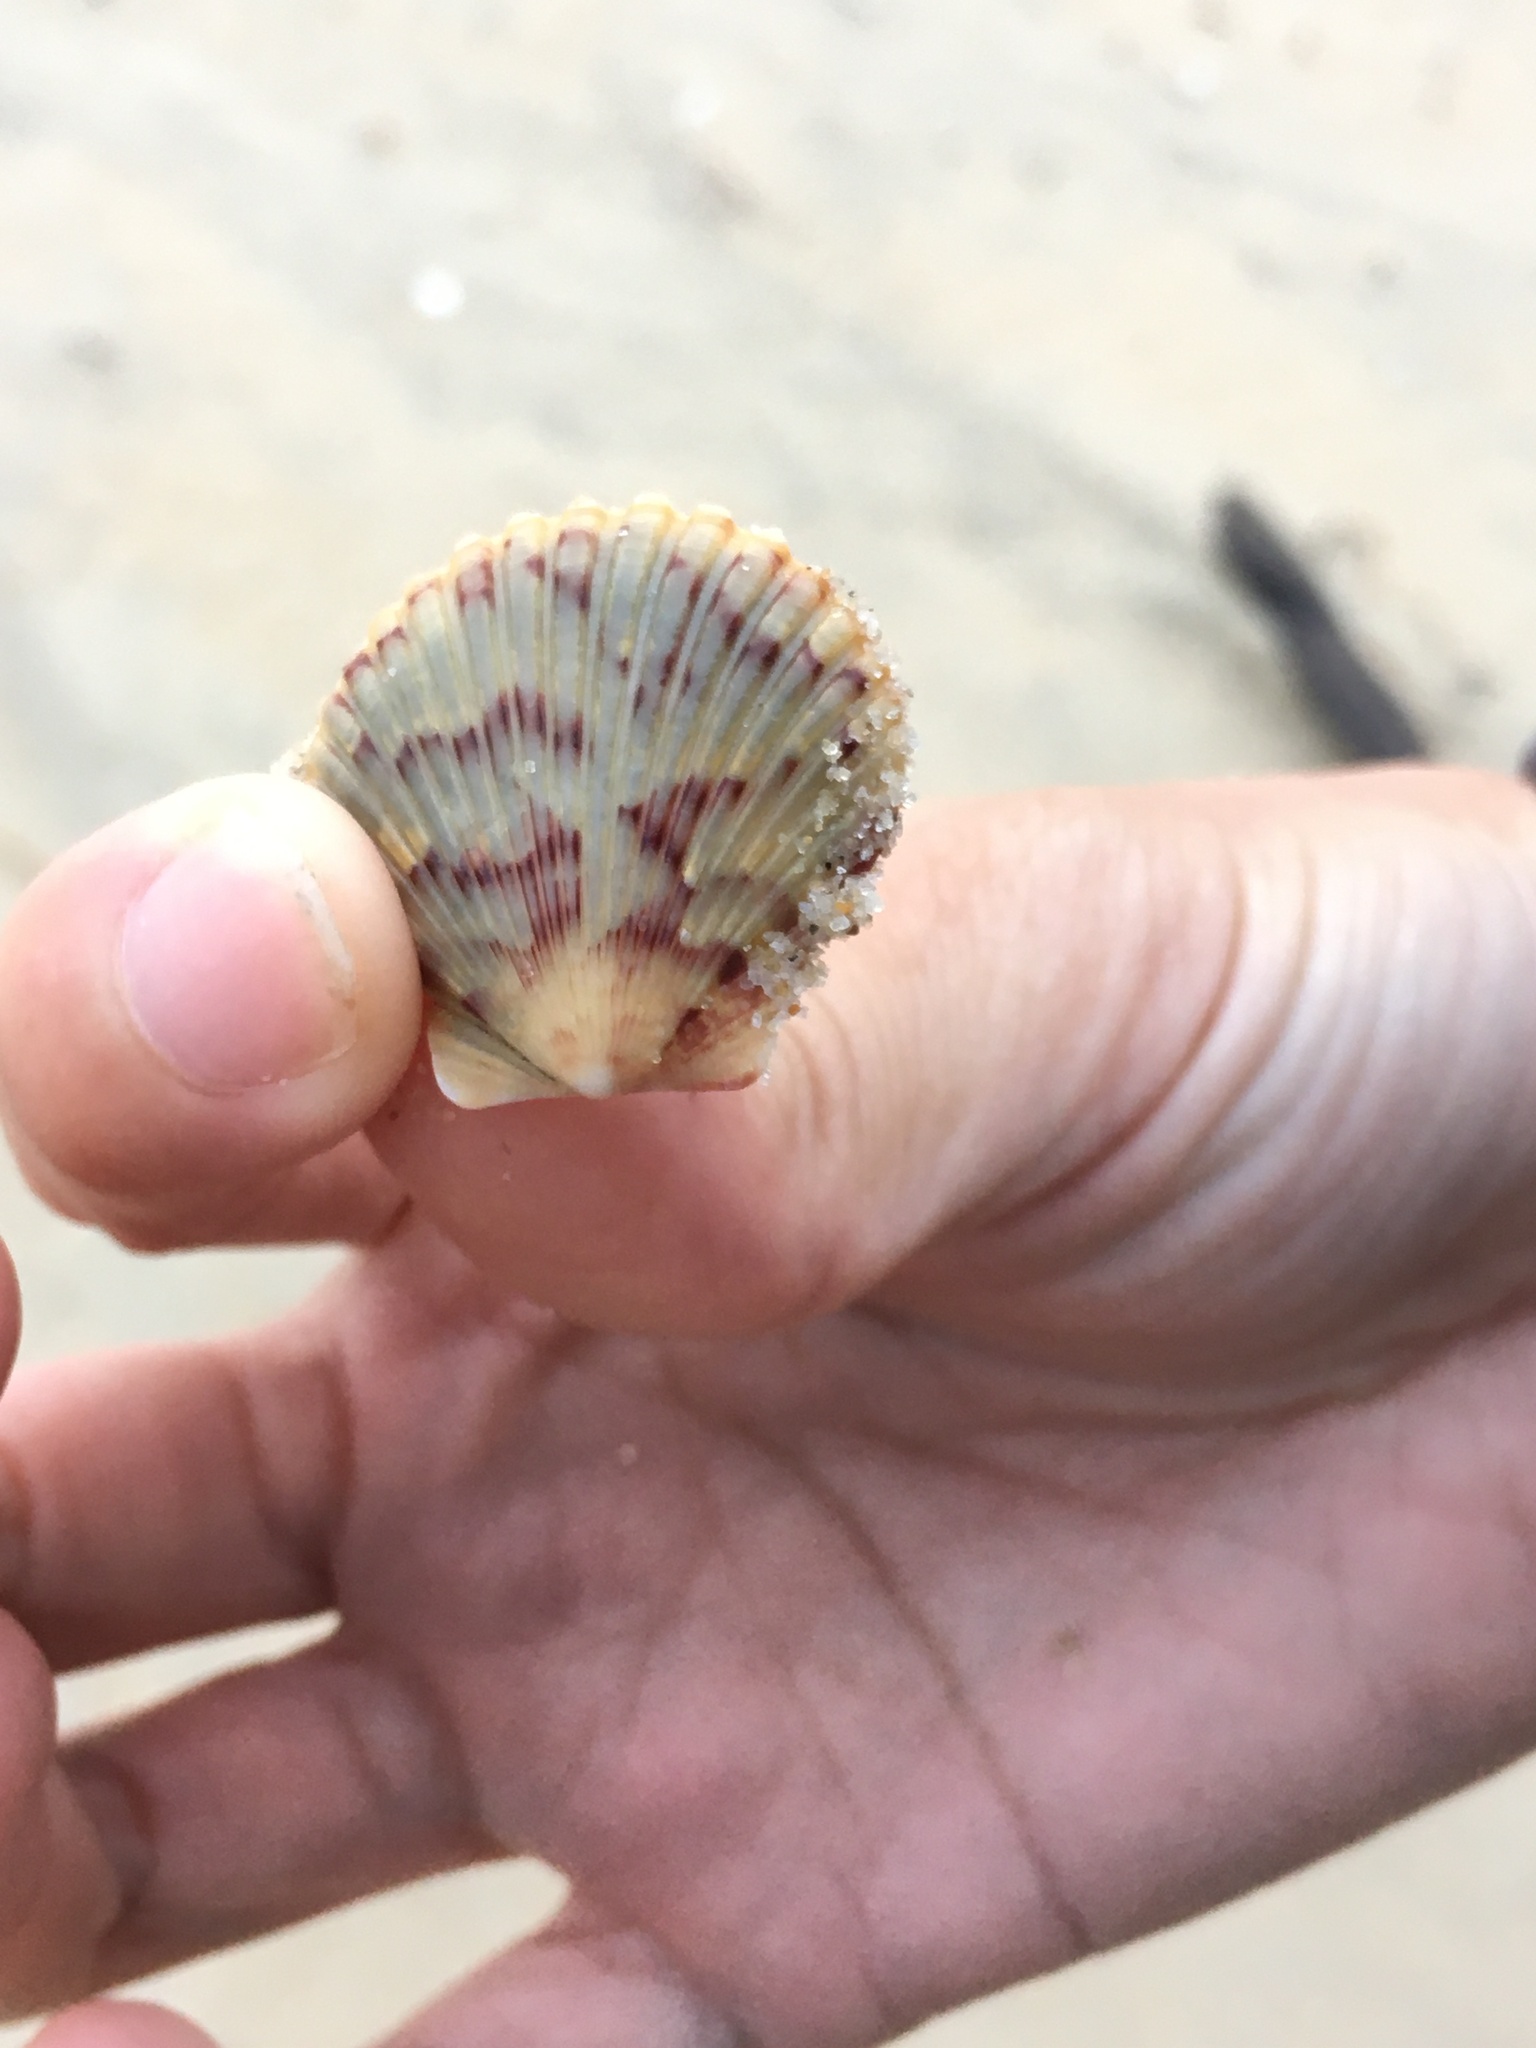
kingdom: Animalia
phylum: Mollusca
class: Bivalvia
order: Pectinida
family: Pectinidae
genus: Argopecten
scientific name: Argopecten gibbus
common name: Atlantic calico scallop
